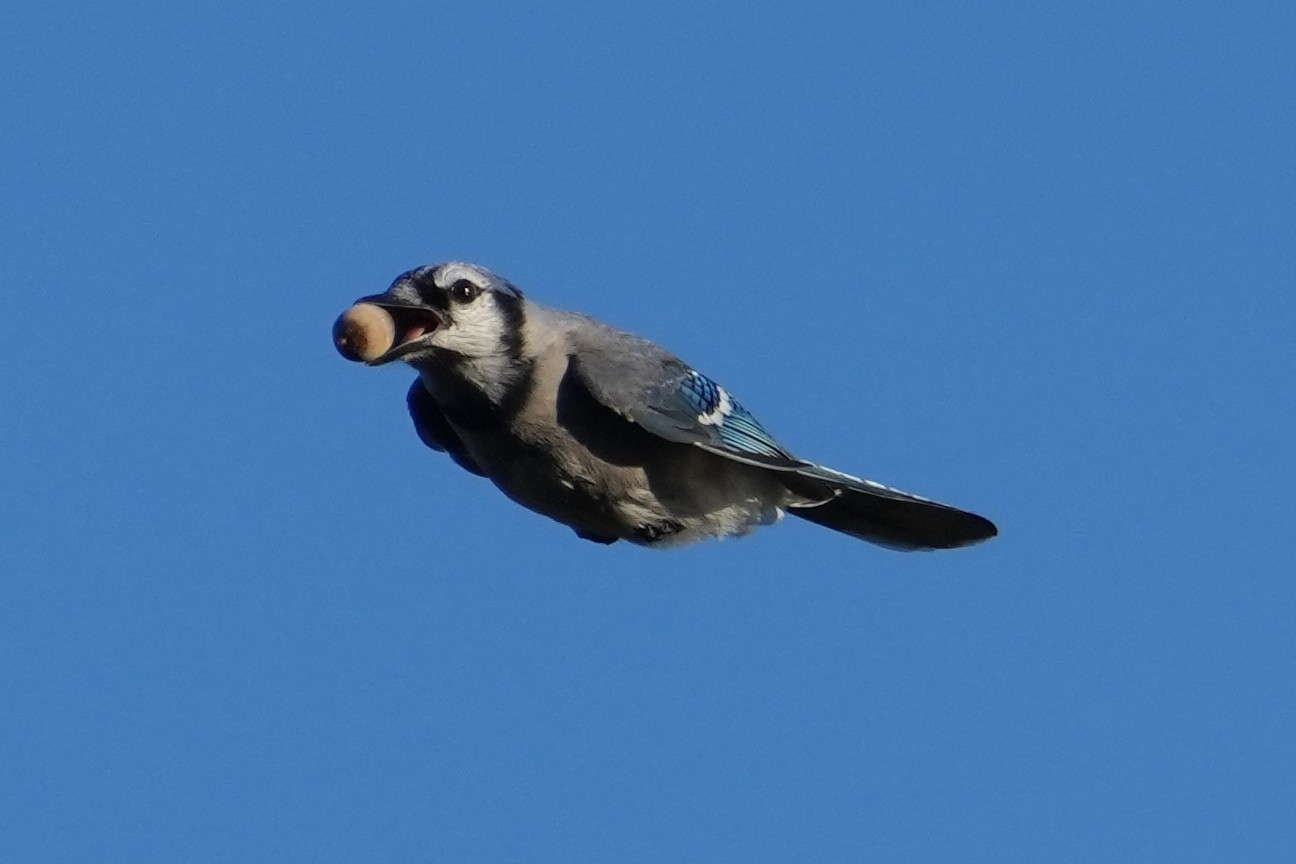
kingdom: Animalia
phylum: Chordata
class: Aves
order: Passeriformes
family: Corvidae
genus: Cyanocitta
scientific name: Cyanocitta cristata
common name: Blue jay
